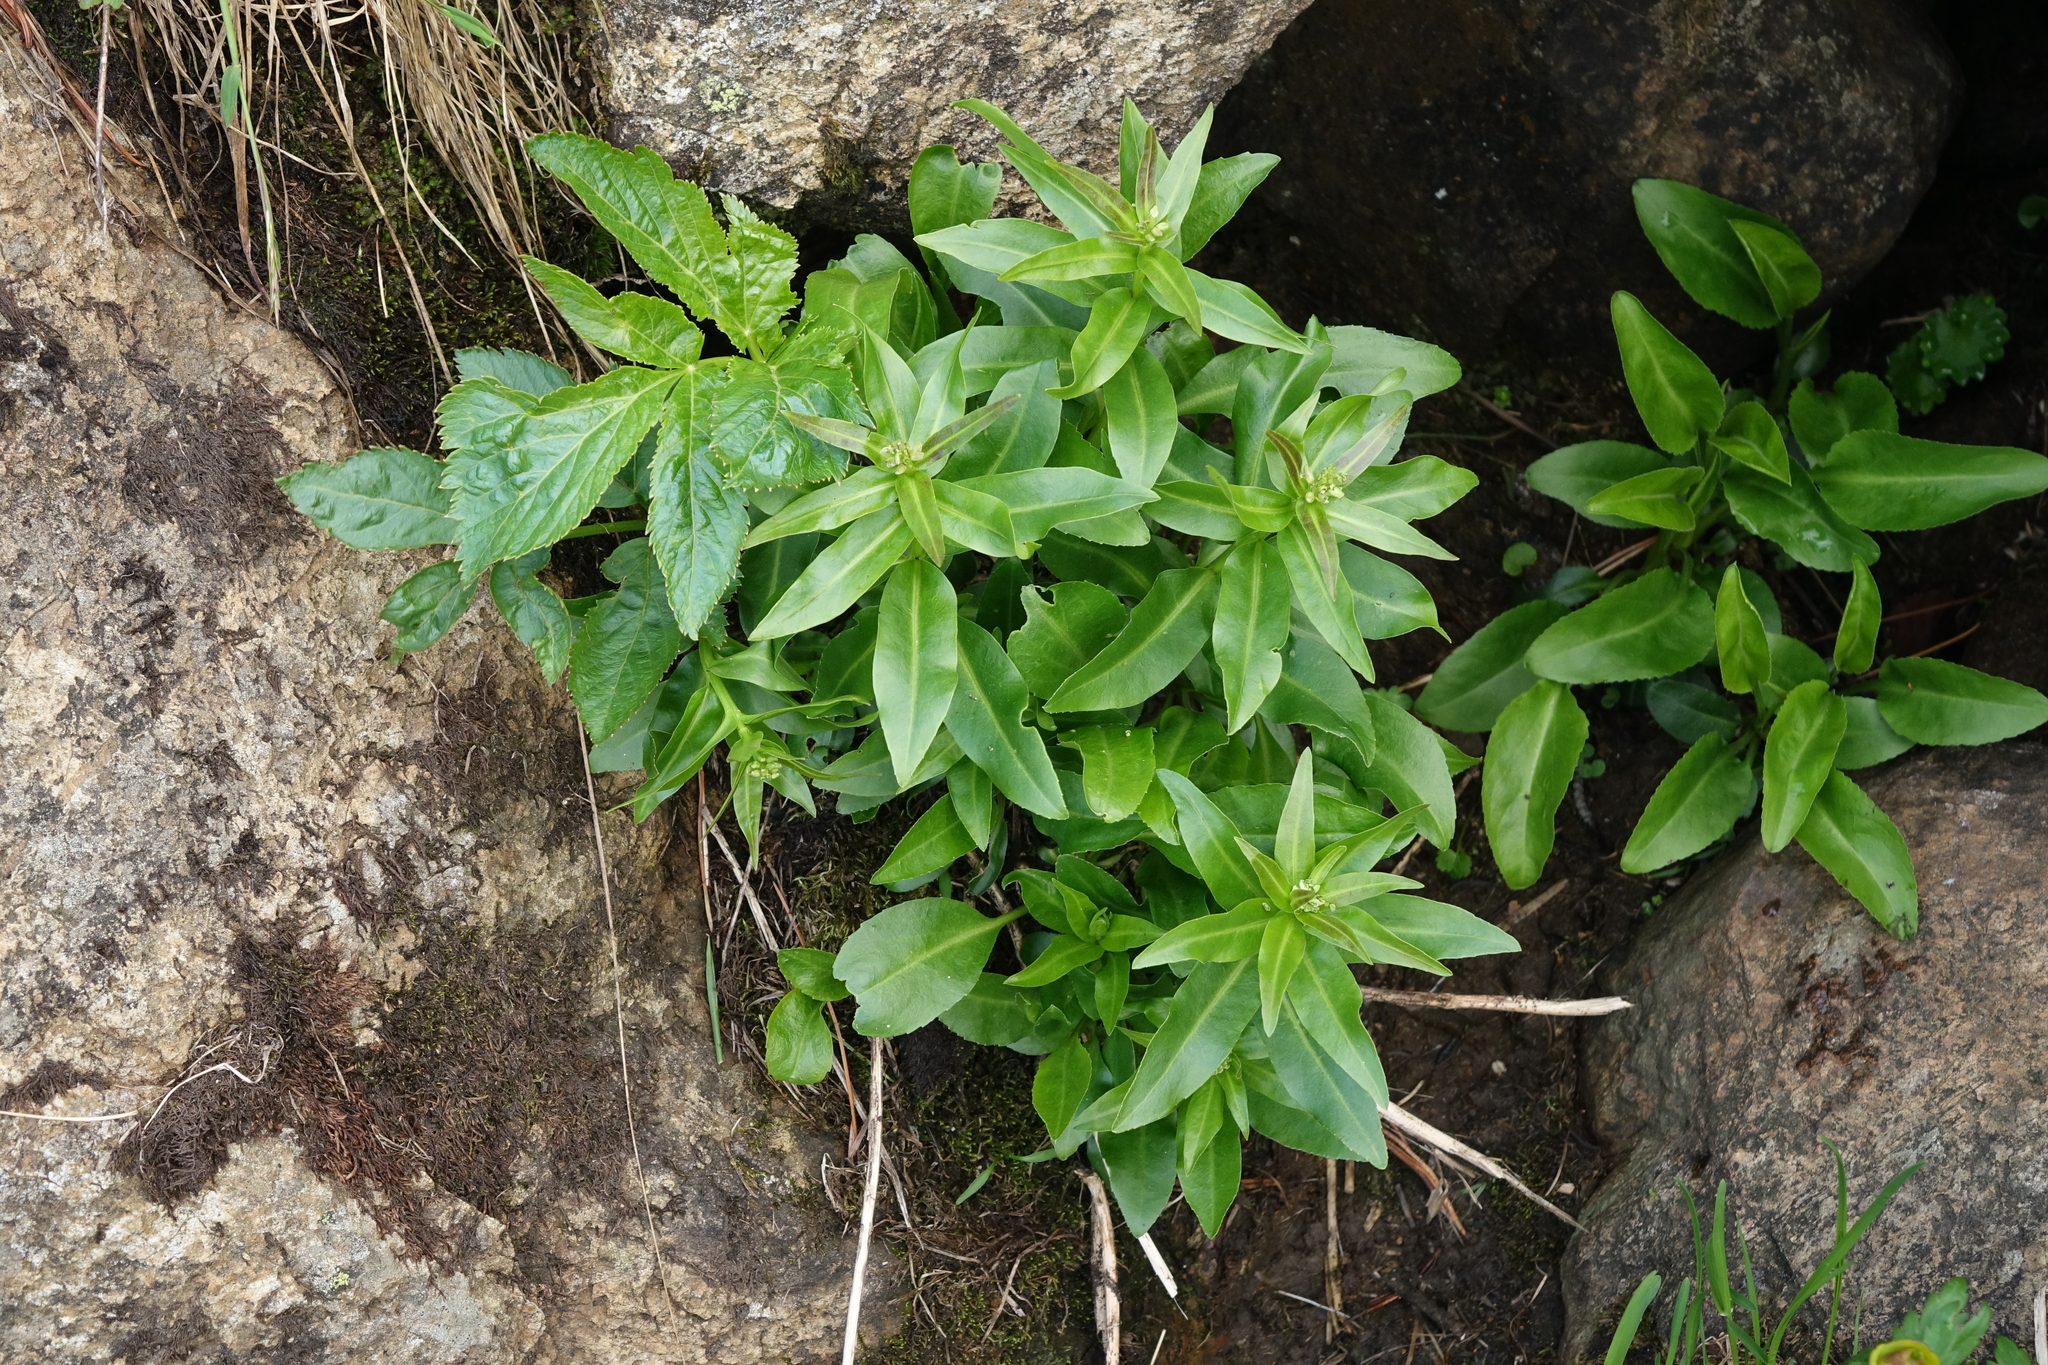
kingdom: Plantae
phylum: Tracheophyta
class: Magnoliopsida
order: Brassicales
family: Brassicaceae
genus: Macropodium
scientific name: Macropodium nivale
